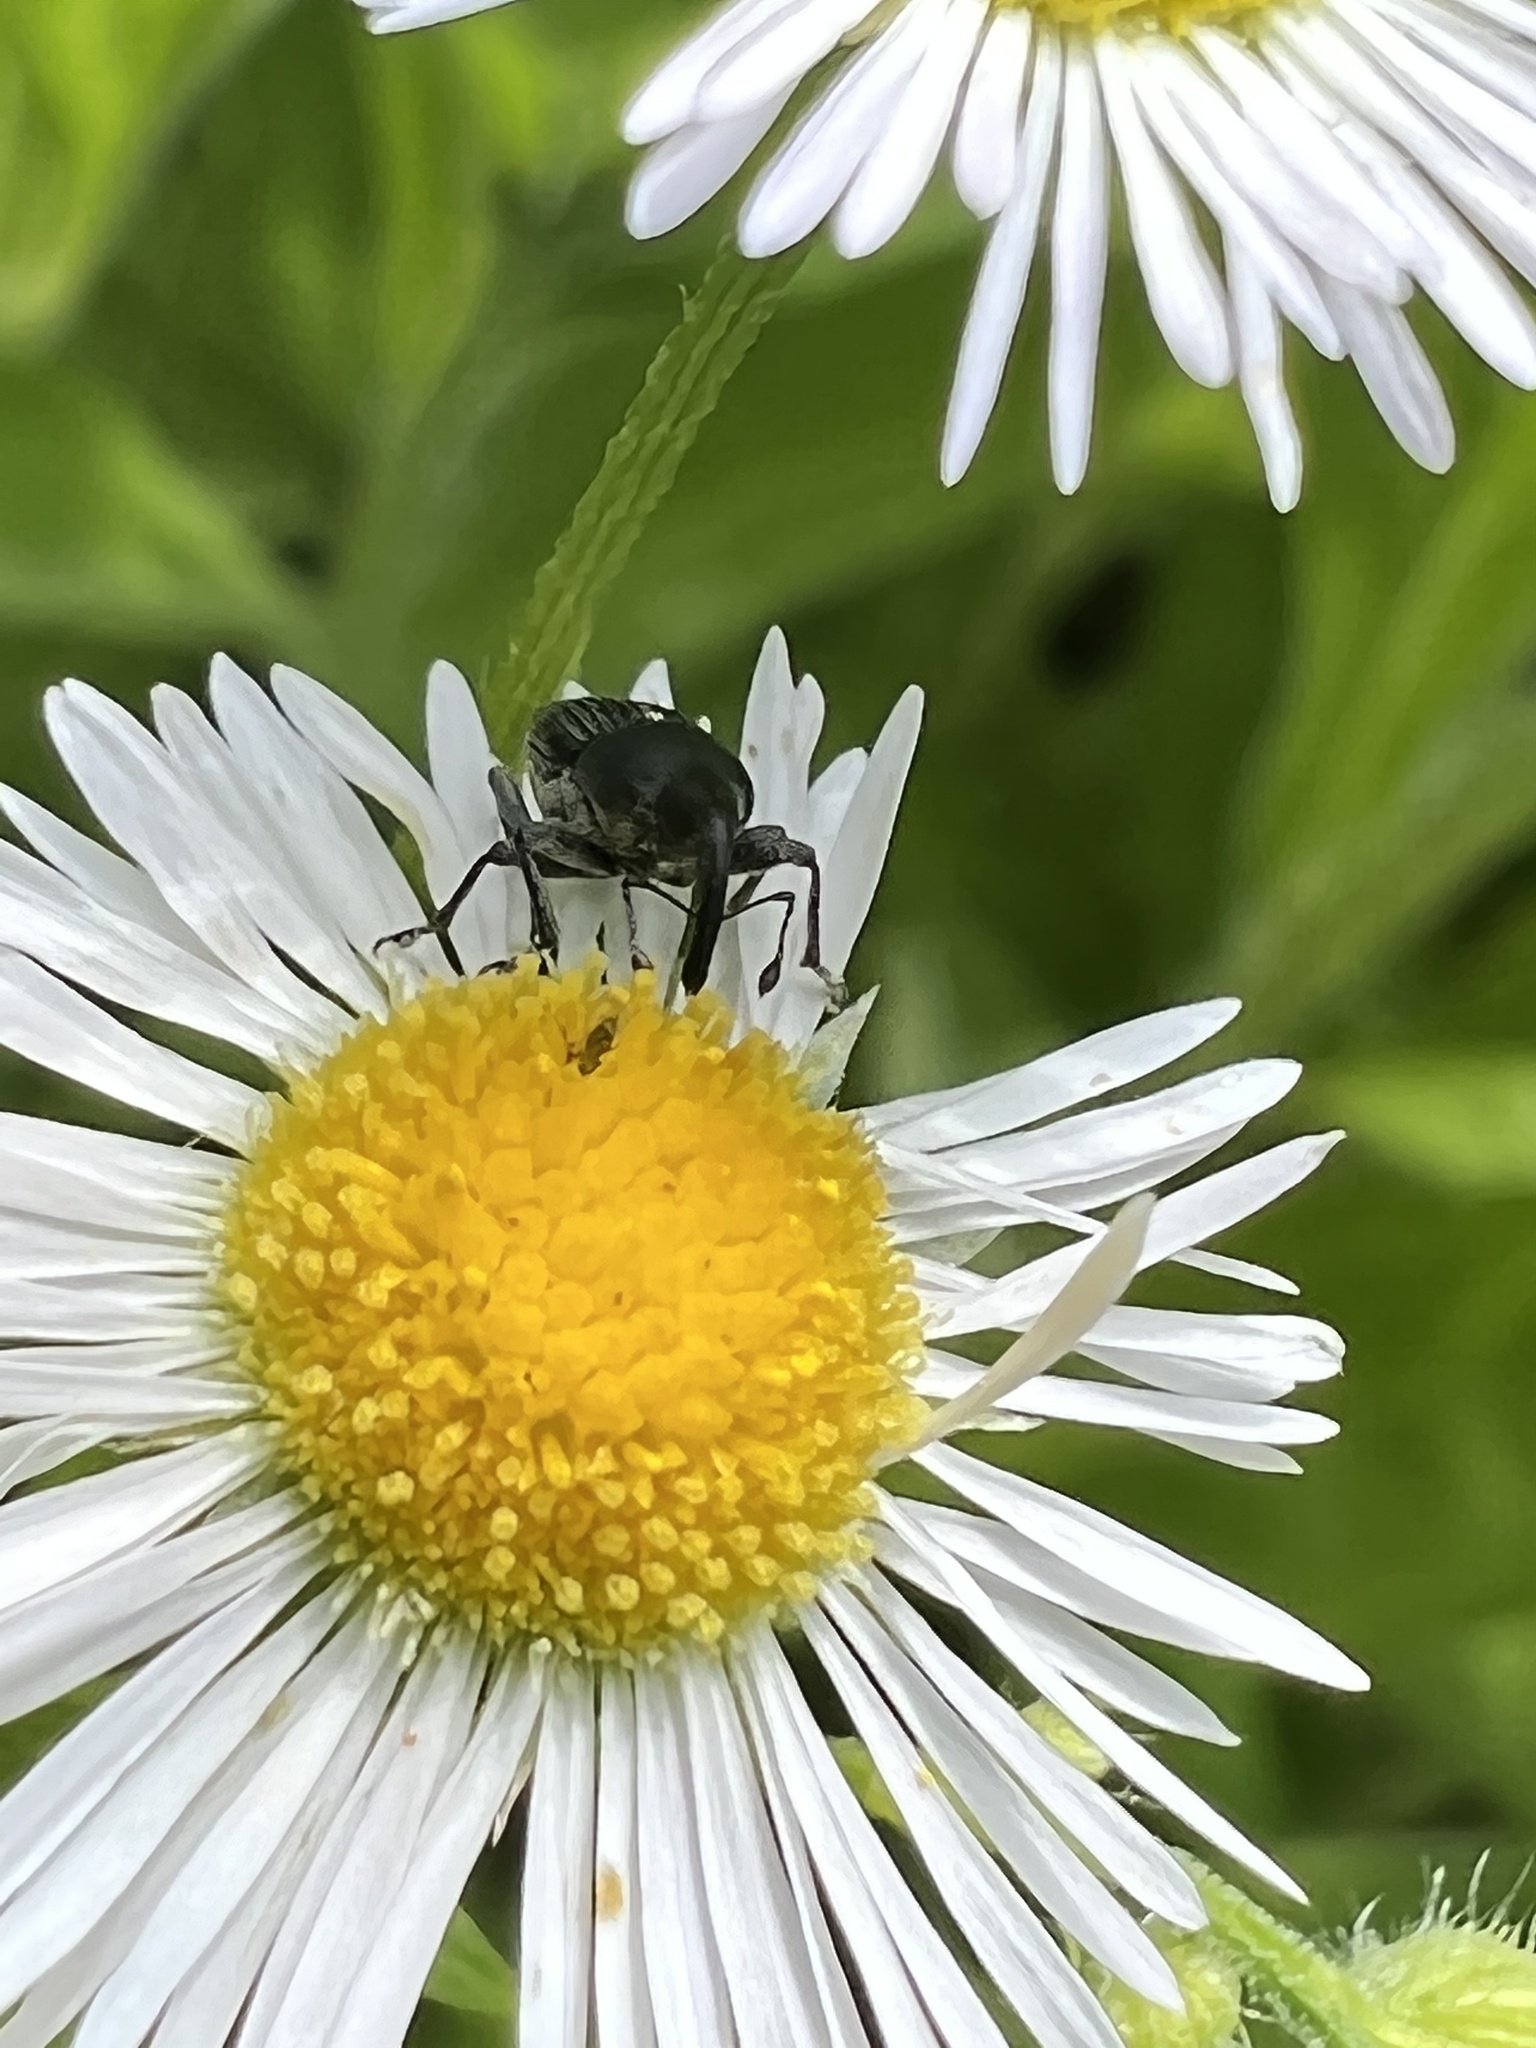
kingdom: Animalia
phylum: Arthropoda
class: Insecta
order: Coleoptera
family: Curculionidae
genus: Odontocorynus
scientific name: Odontocorynus salebrosus
